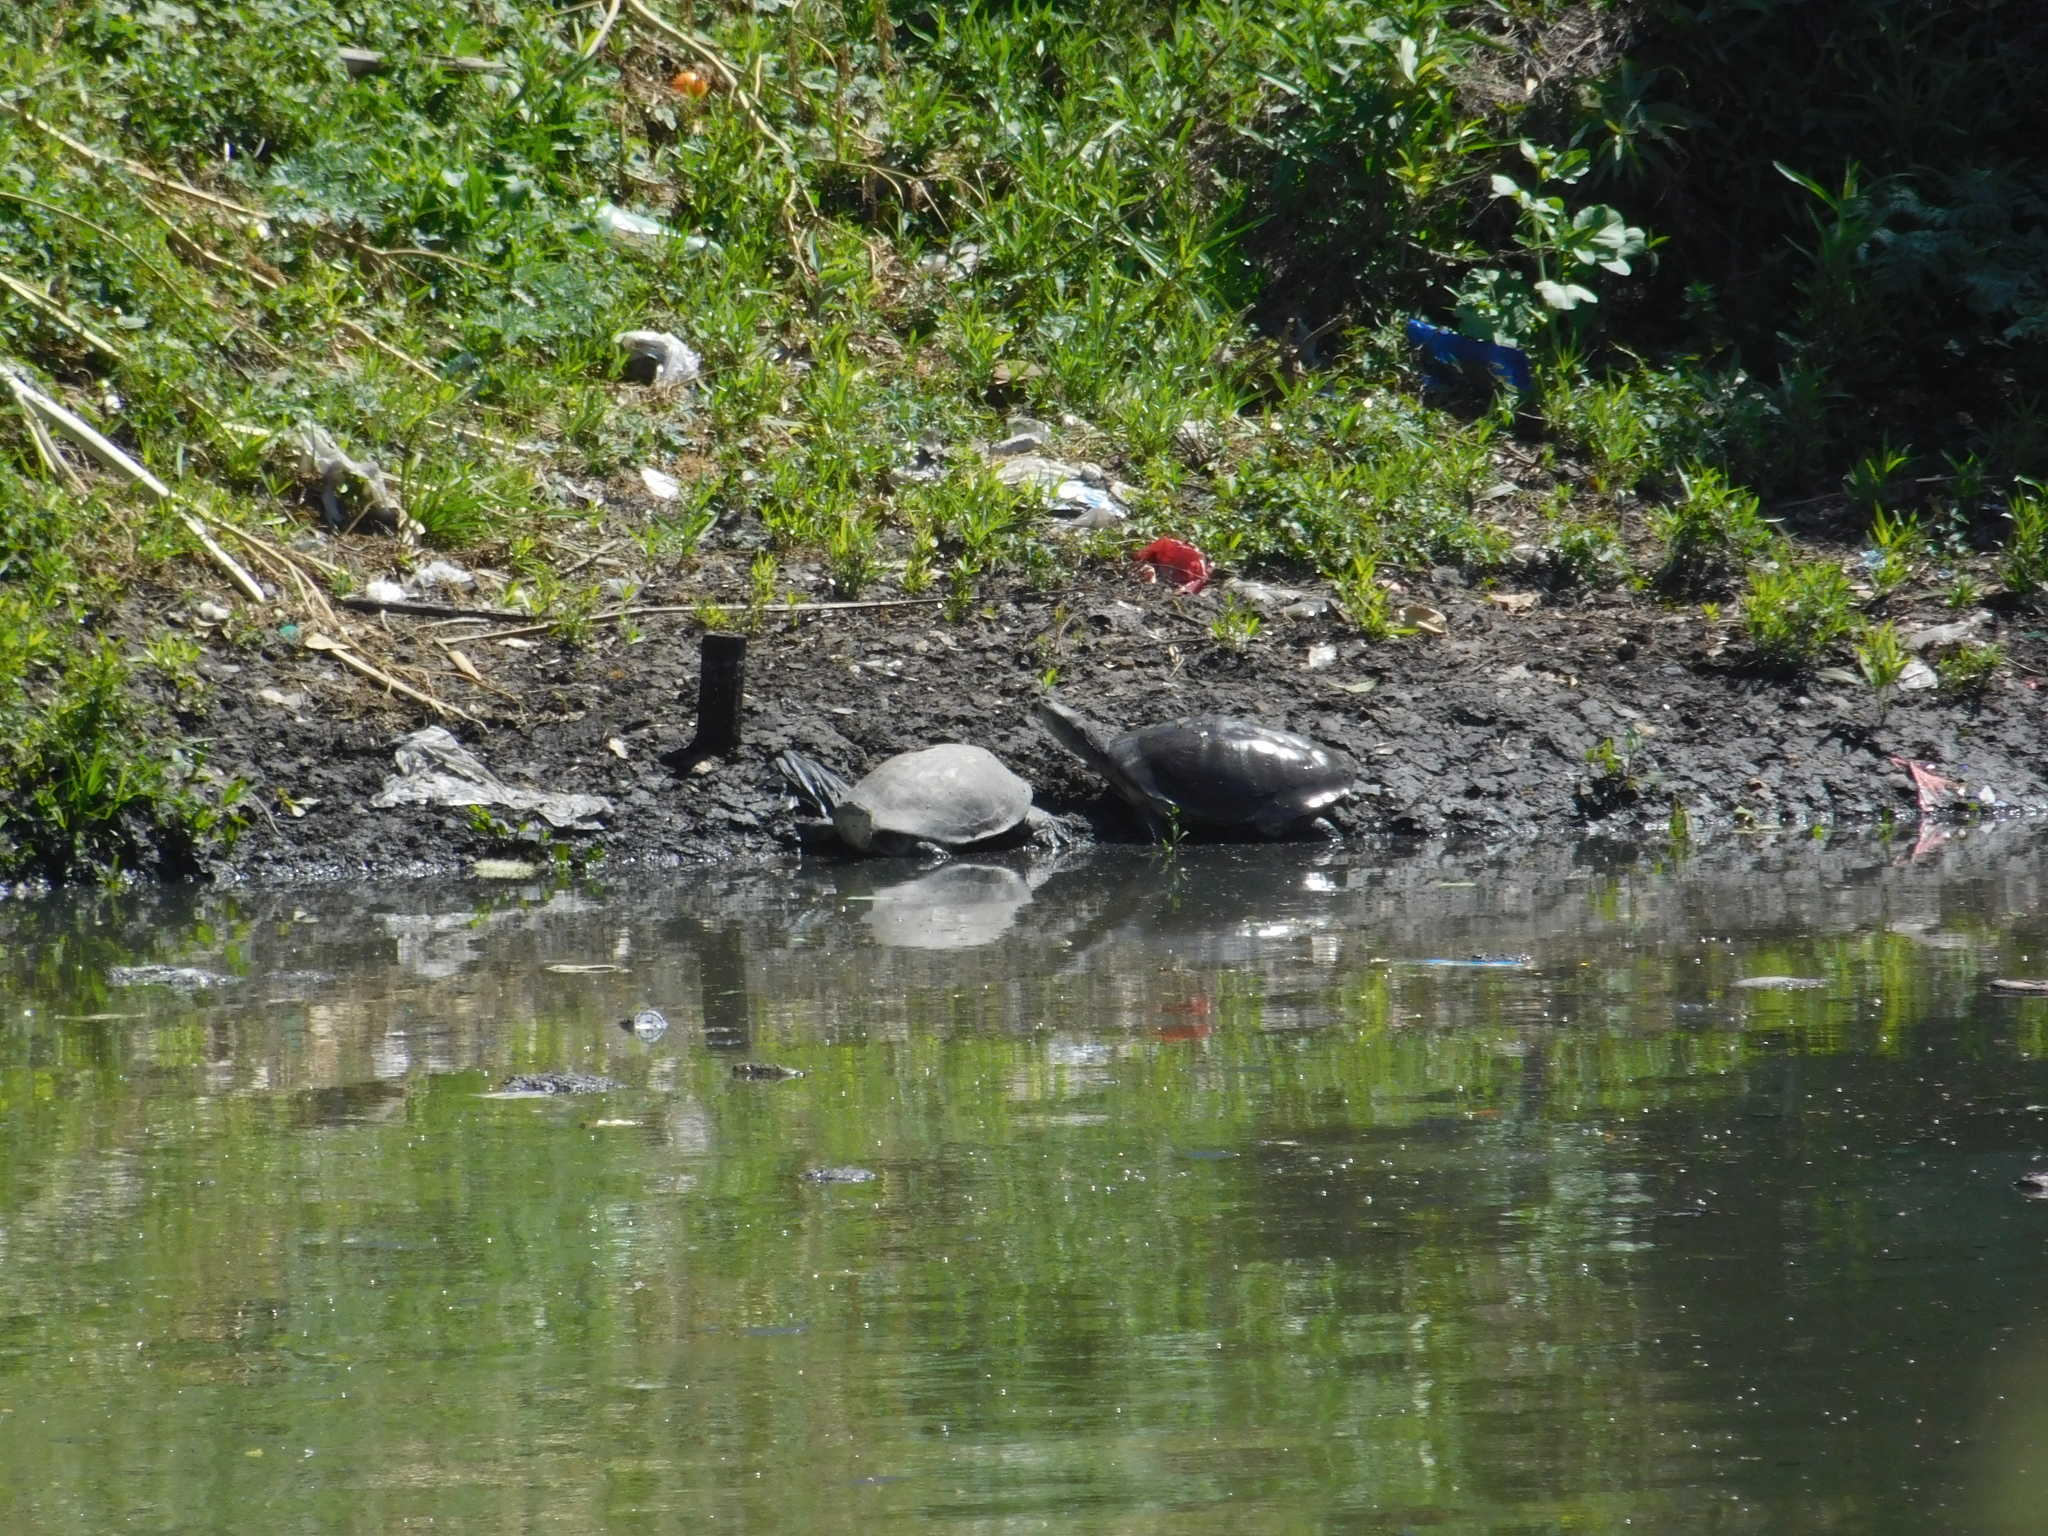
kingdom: Animalia
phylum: Chordata
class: Testudines
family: Chelidae
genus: Phrynops
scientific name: Phrynops hilarii
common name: Side-necked turtle of saint hillaire
